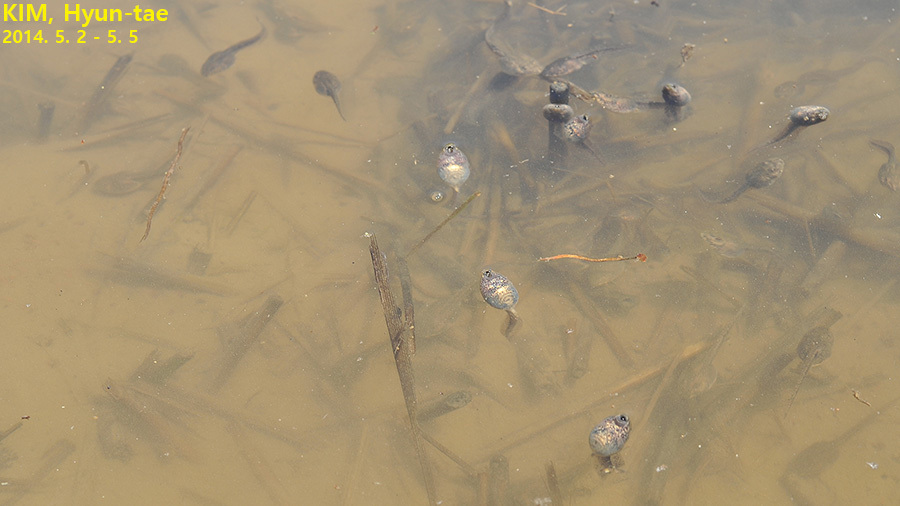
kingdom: Animalia
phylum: Chordata
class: Amphibia
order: Anura
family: Ranidae
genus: Rana
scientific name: Rana uenoi
